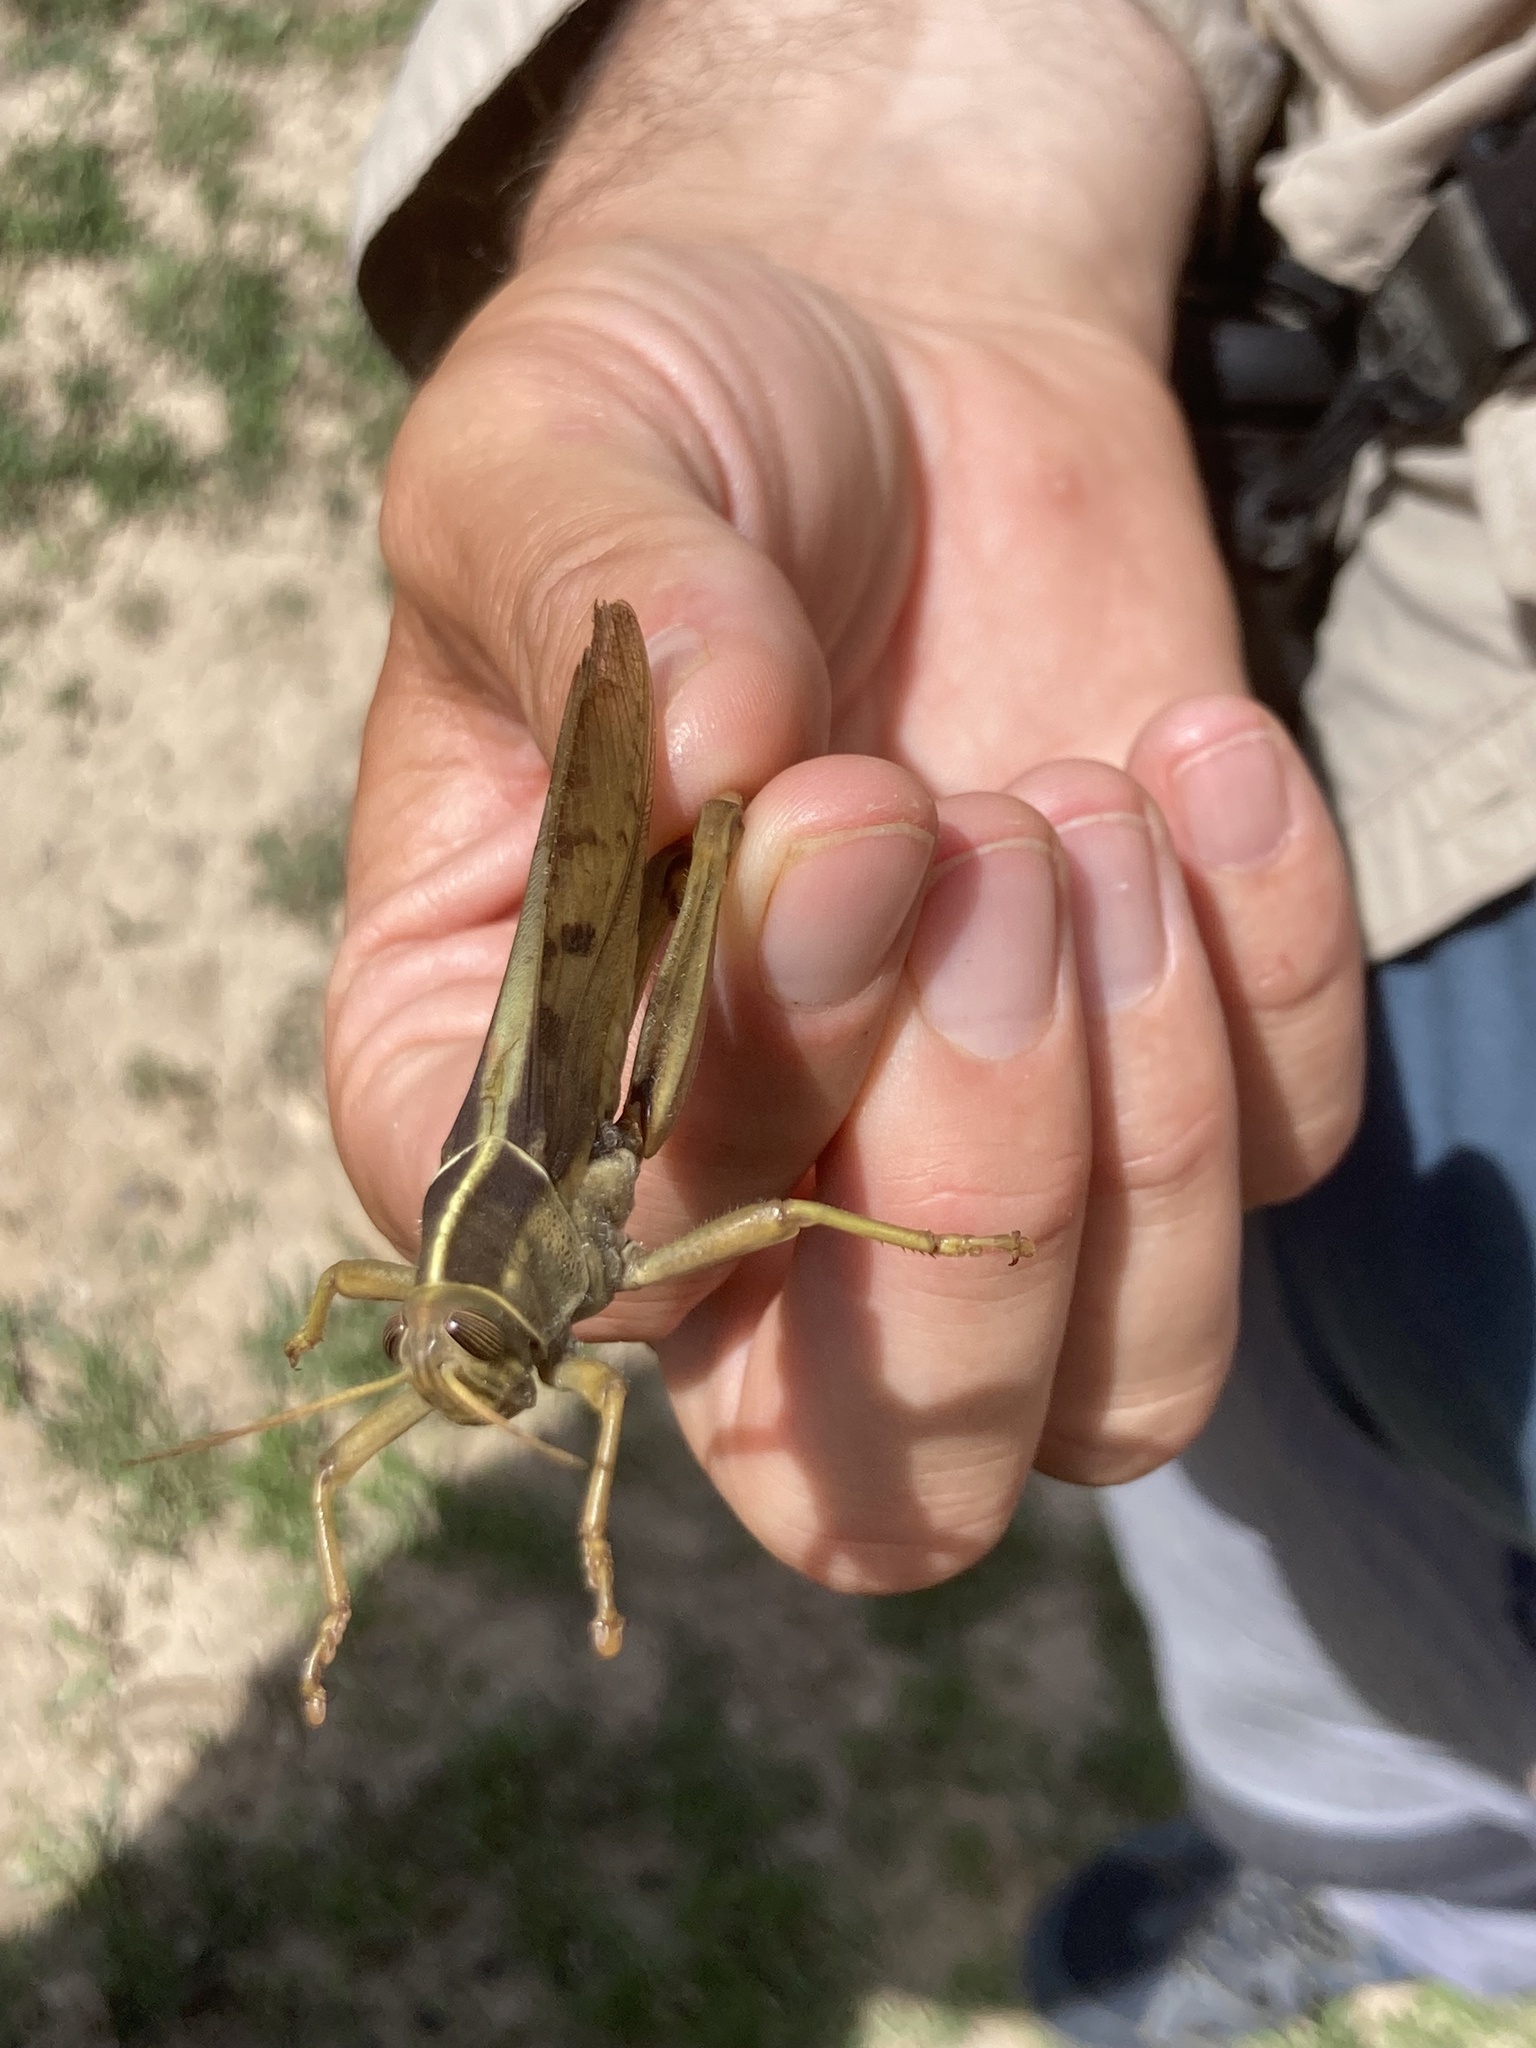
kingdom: Animalia
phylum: Arthropoda
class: Insecta
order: Orthoptera
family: Acrididae
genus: Acanthacris
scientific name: Acanthacris ruficornis
